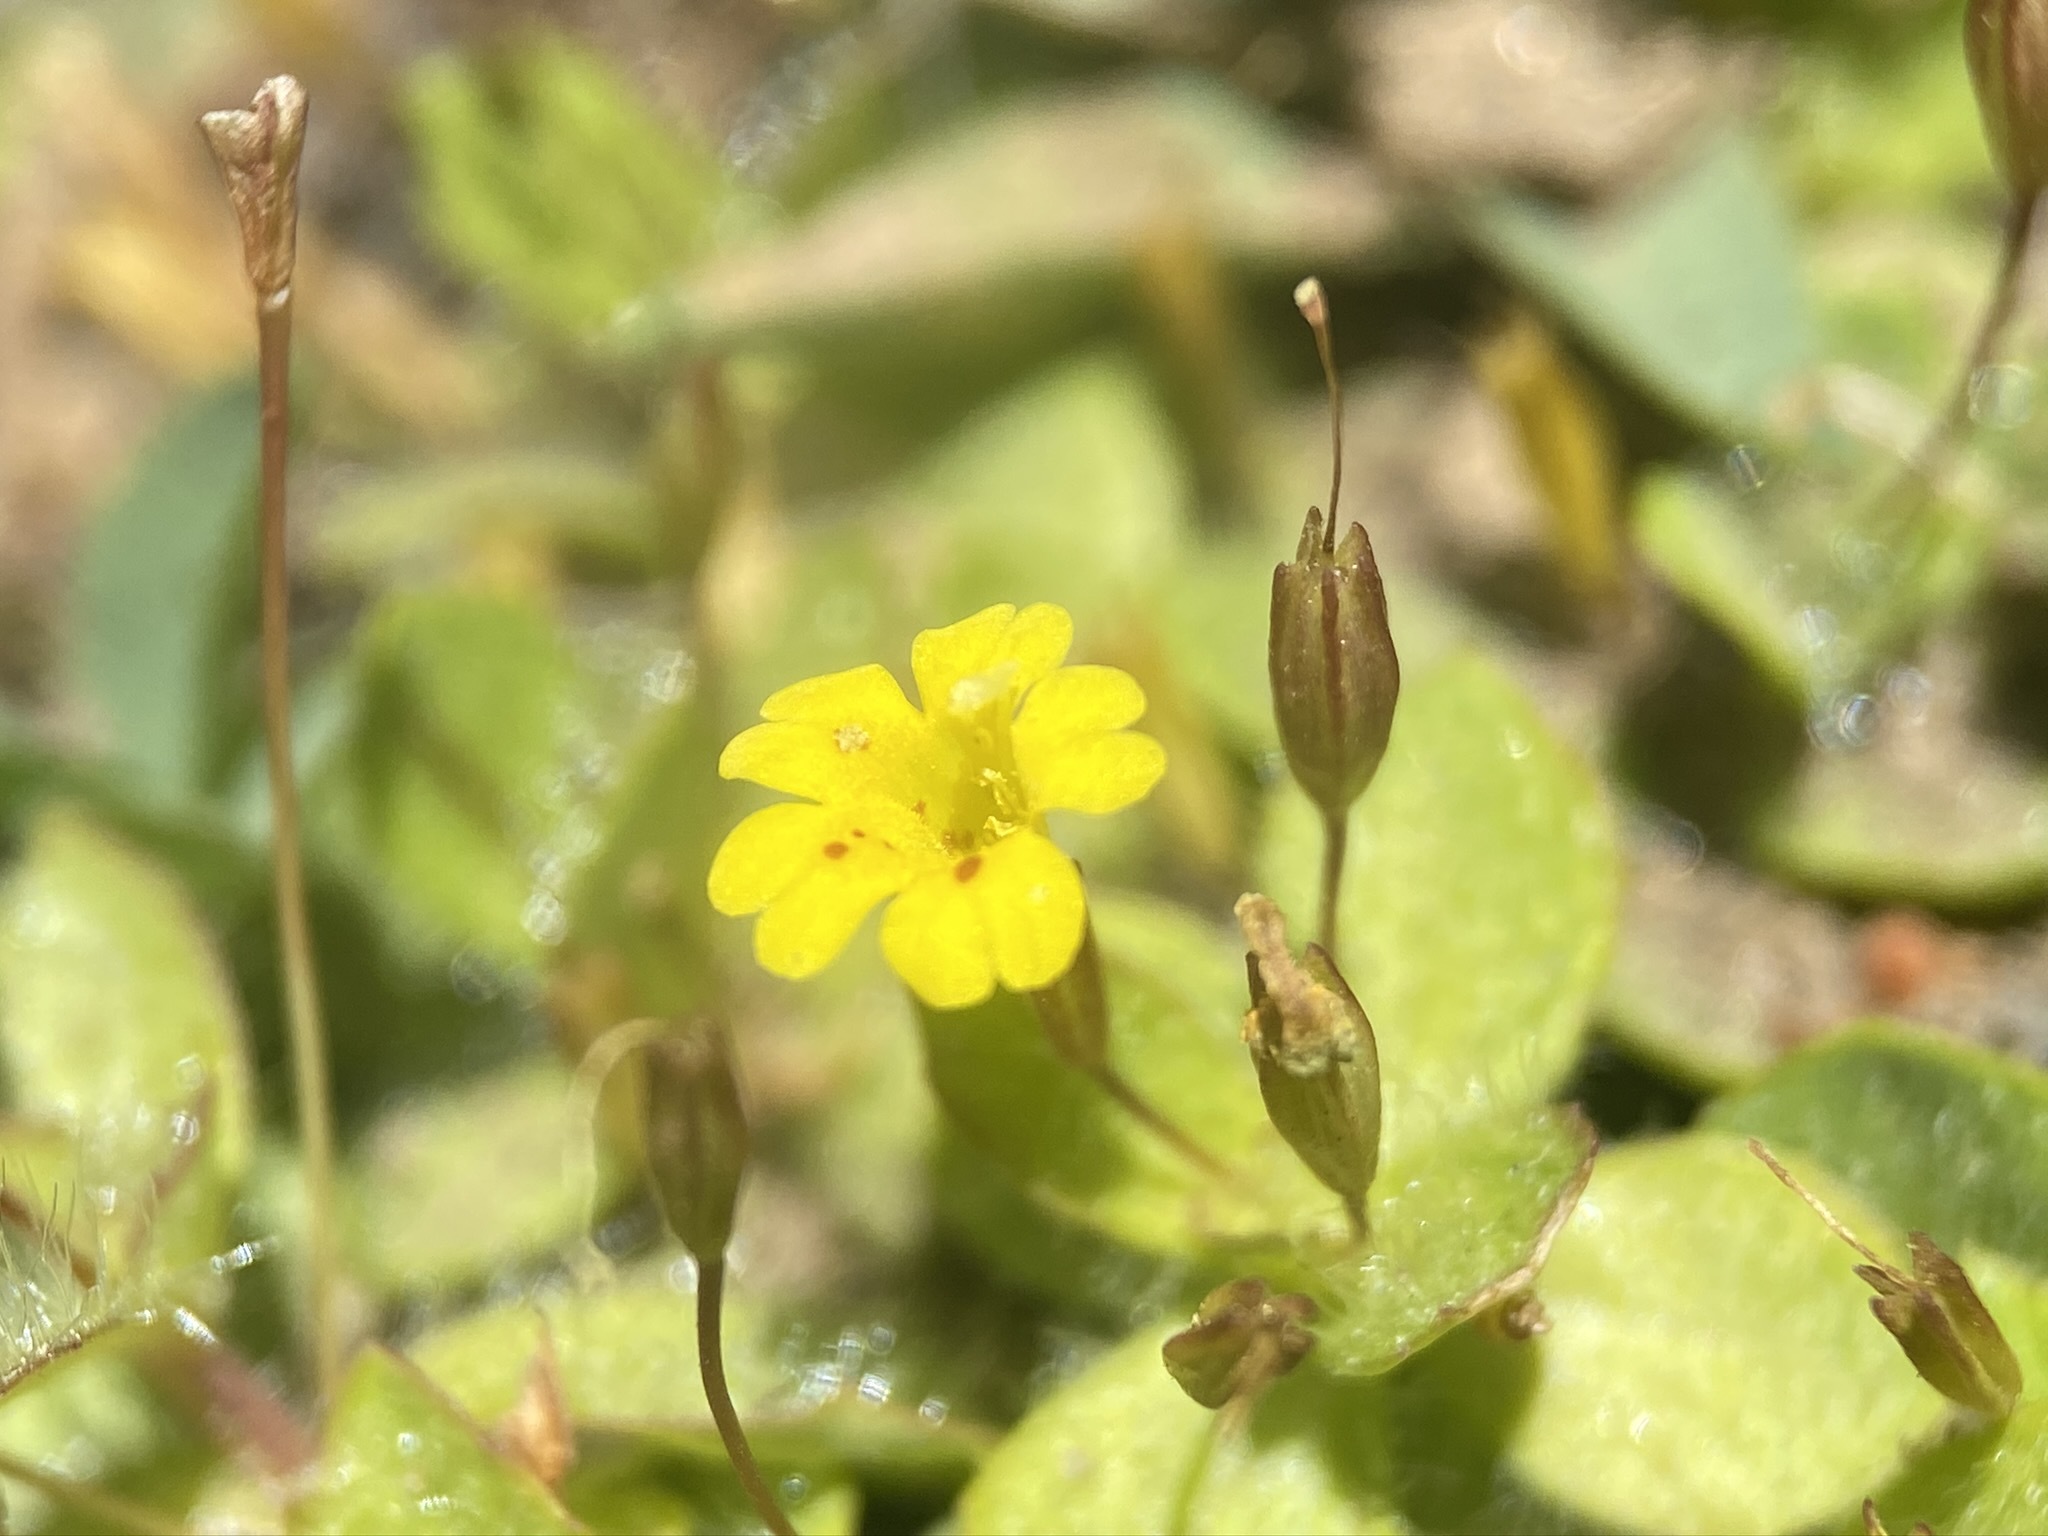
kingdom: Plantae
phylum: Tracheophyta
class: Magnoliopsida
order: Lamiales
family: Phrymaceae
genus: Erythranthe
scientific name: Erythranthe primuloides
